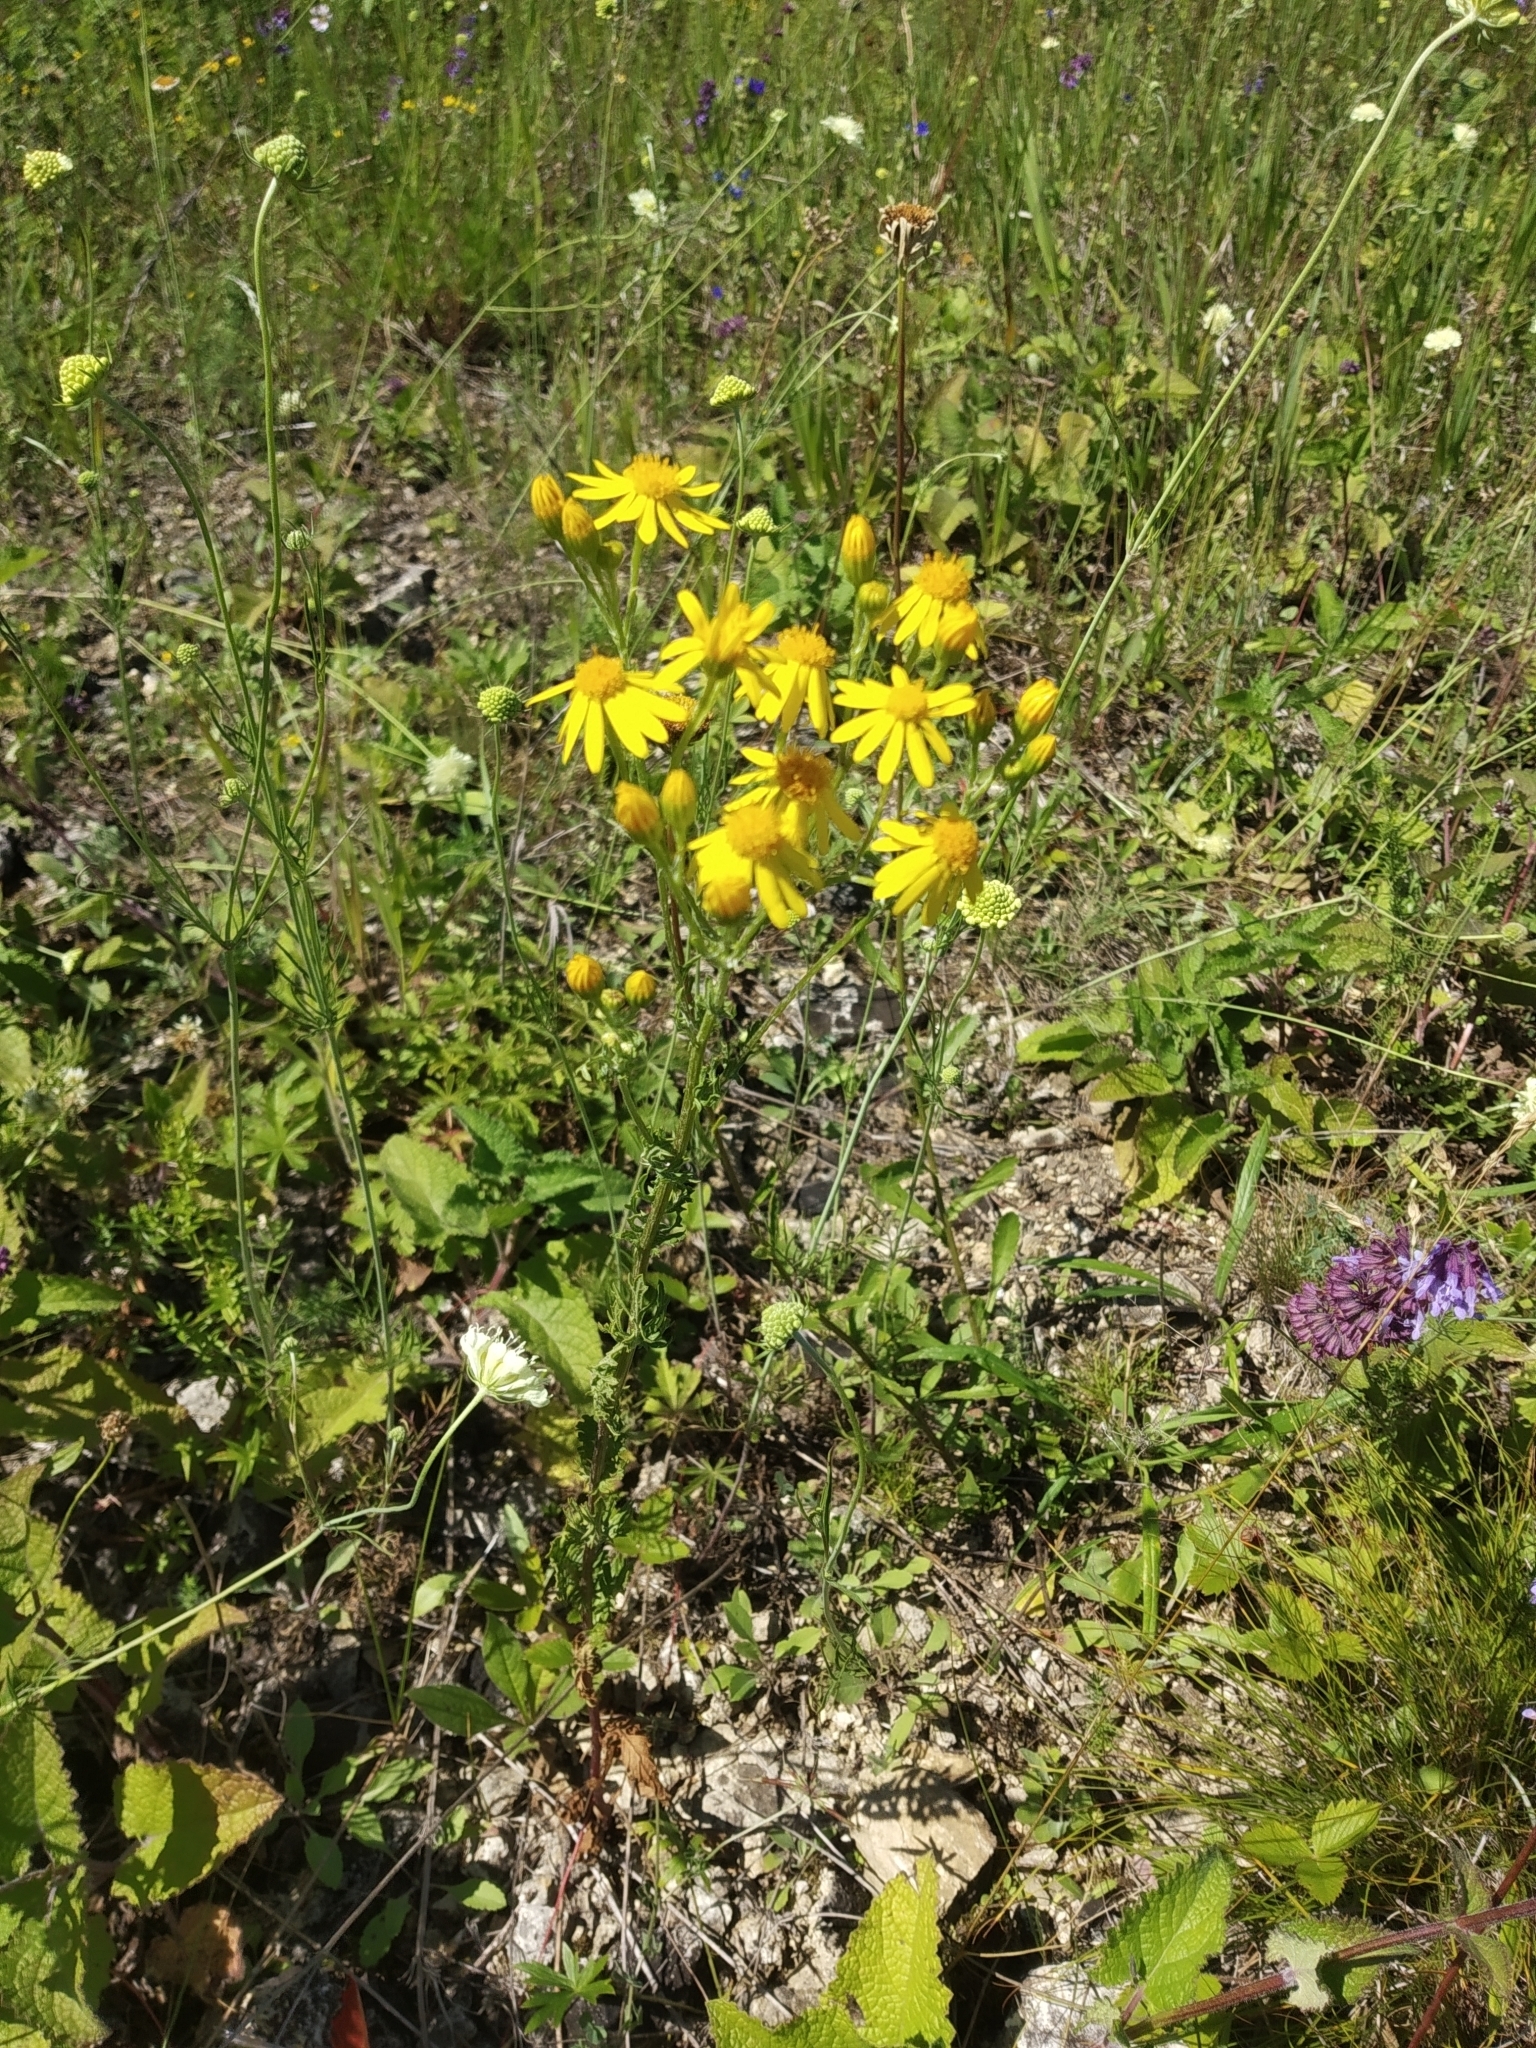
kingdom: Plantae
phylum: Tracheophyta
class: Magnoliopsida
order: Asterales
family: Asteraceae
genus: Jacobaea
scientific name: Jacobaea vulgaris
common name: Stinking willie
